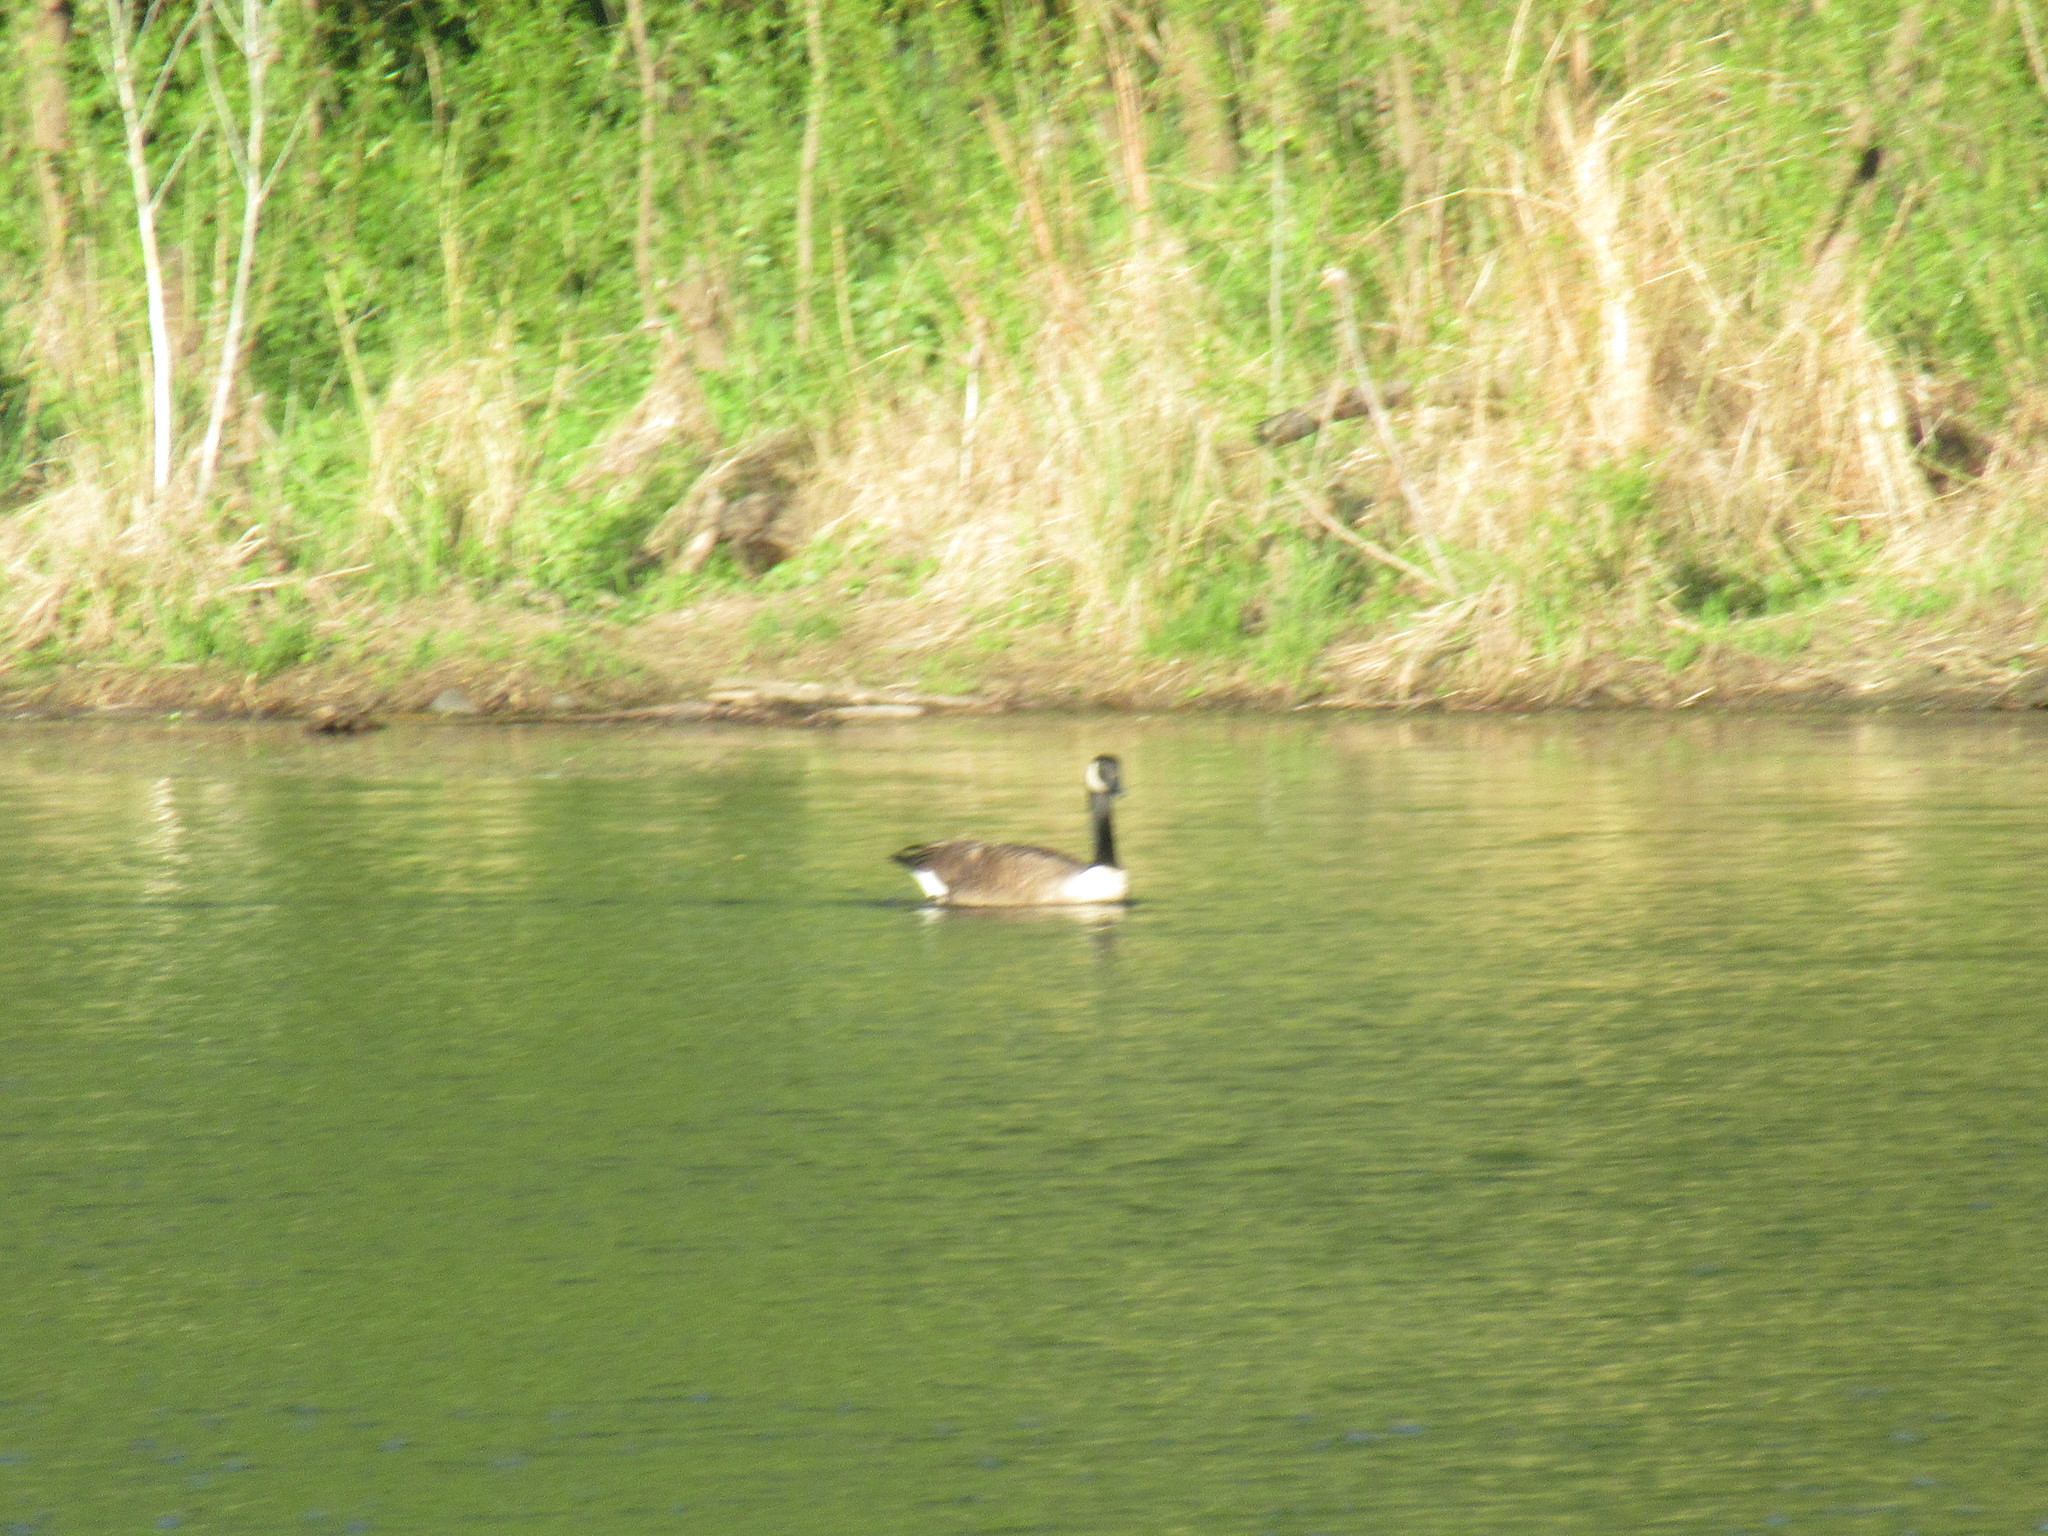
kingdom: Animalia
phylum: Chordata
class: Aves
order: Anseriformes
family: Anatidae
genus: Branta
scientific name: Branta canadensis
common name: Canada goose
